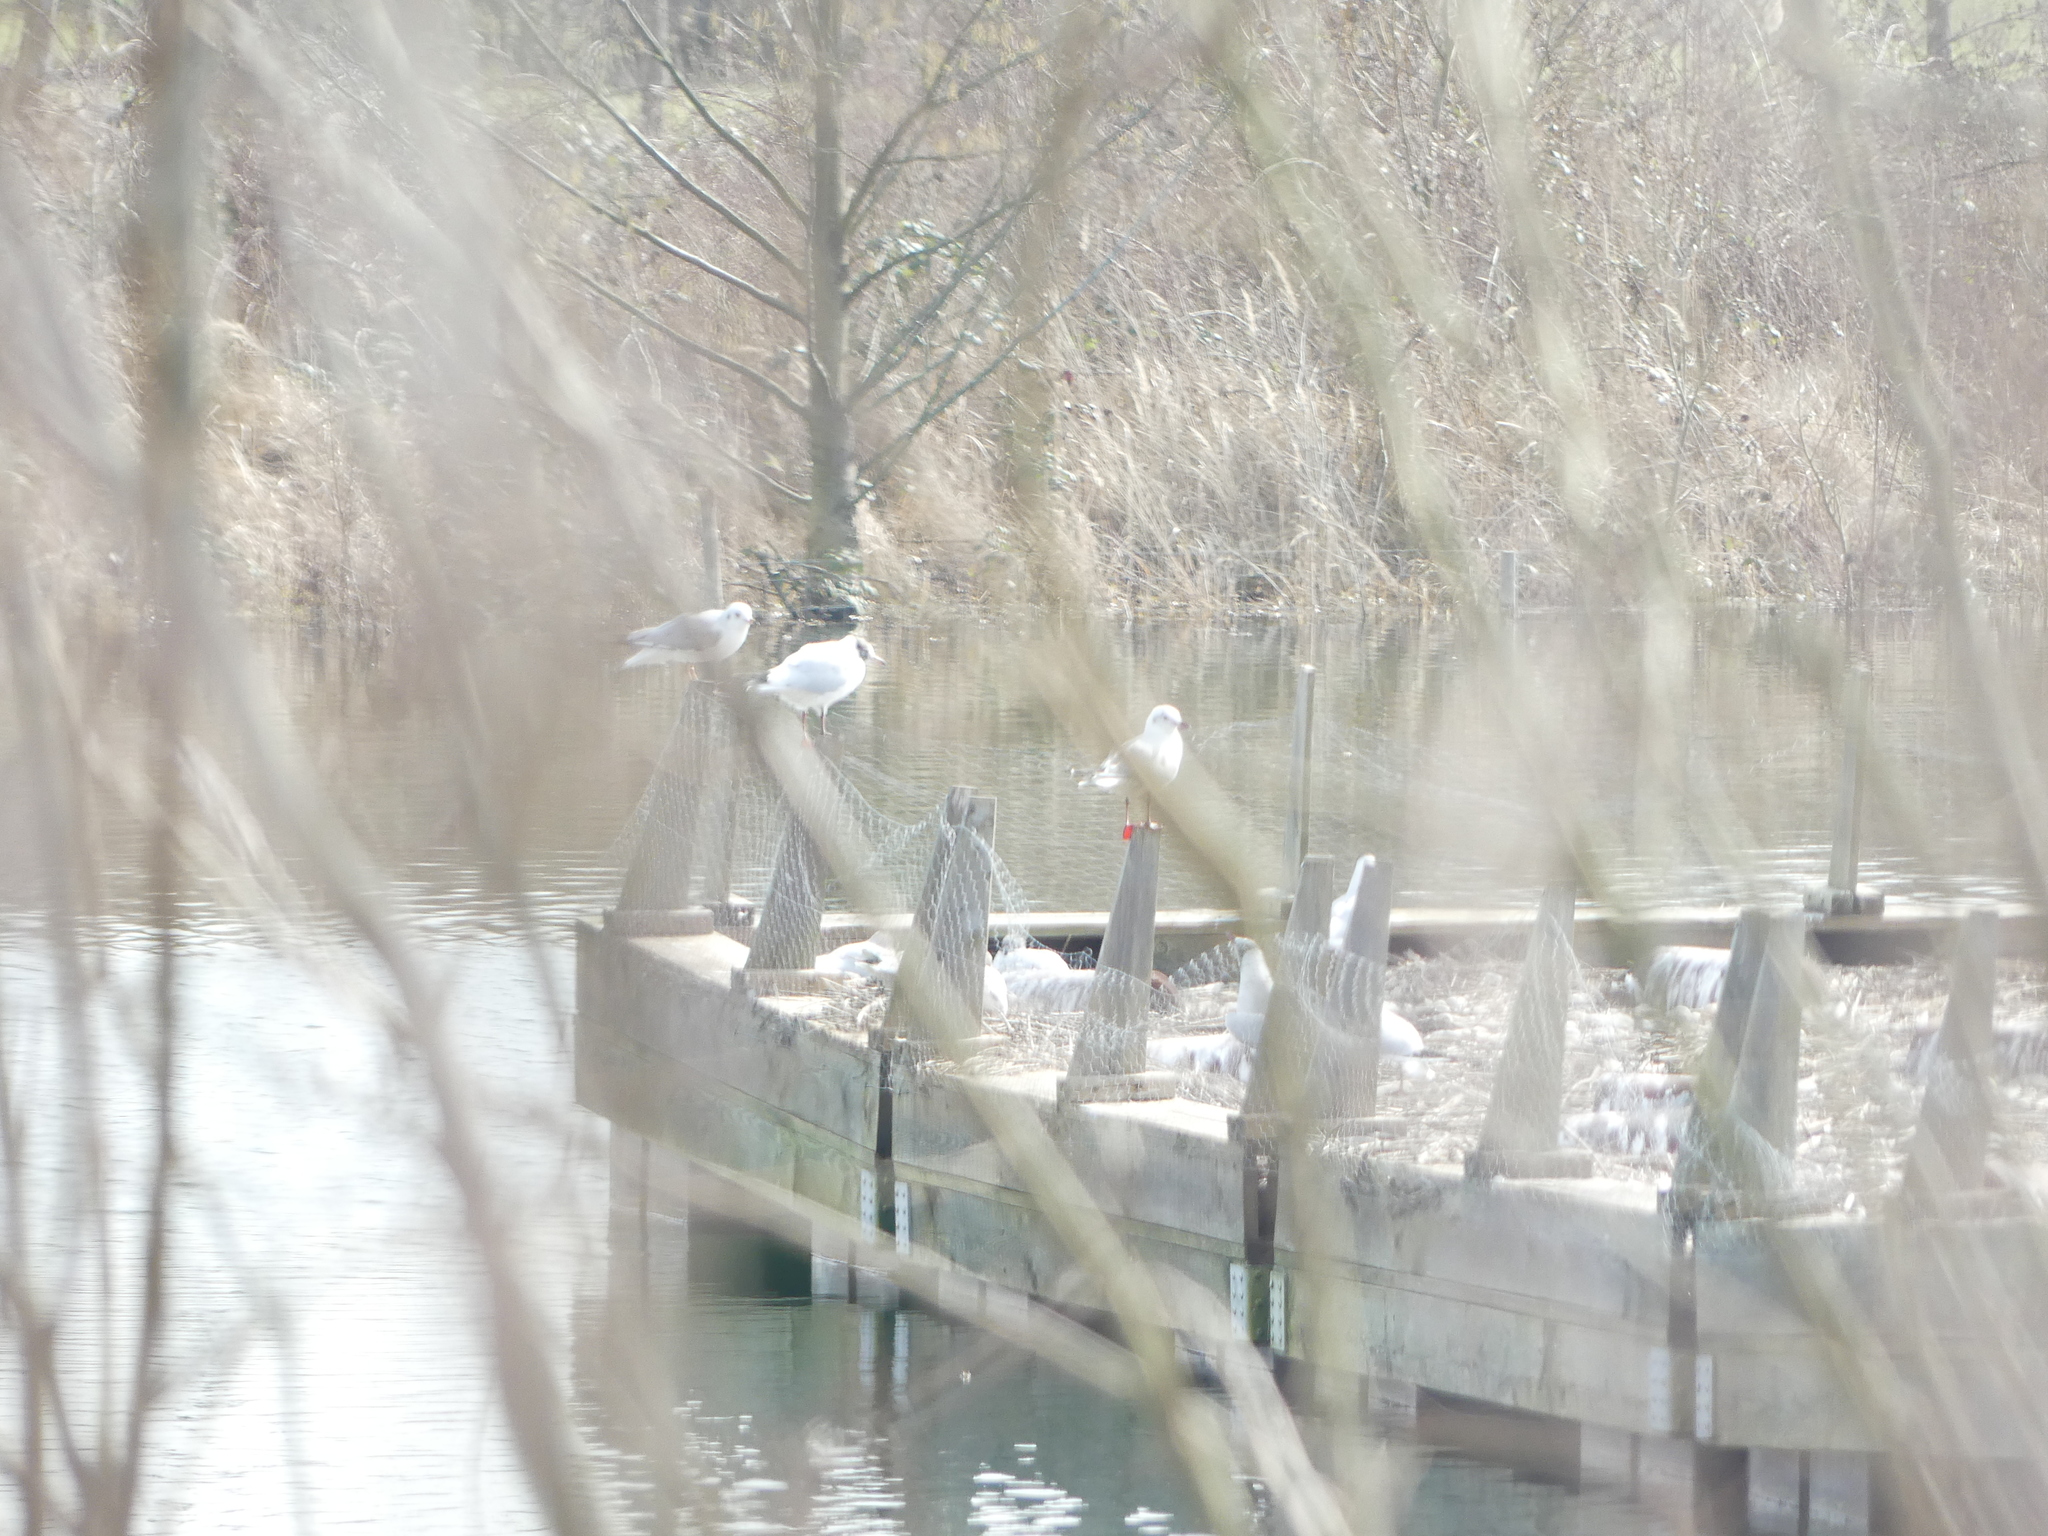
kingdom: Animalia
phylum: Chordata
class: Aves
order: Charadriiformes
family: Laridae
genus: Chroicocephalus
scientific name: Chroicocephalus ridibundus
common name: Black-headed gull
